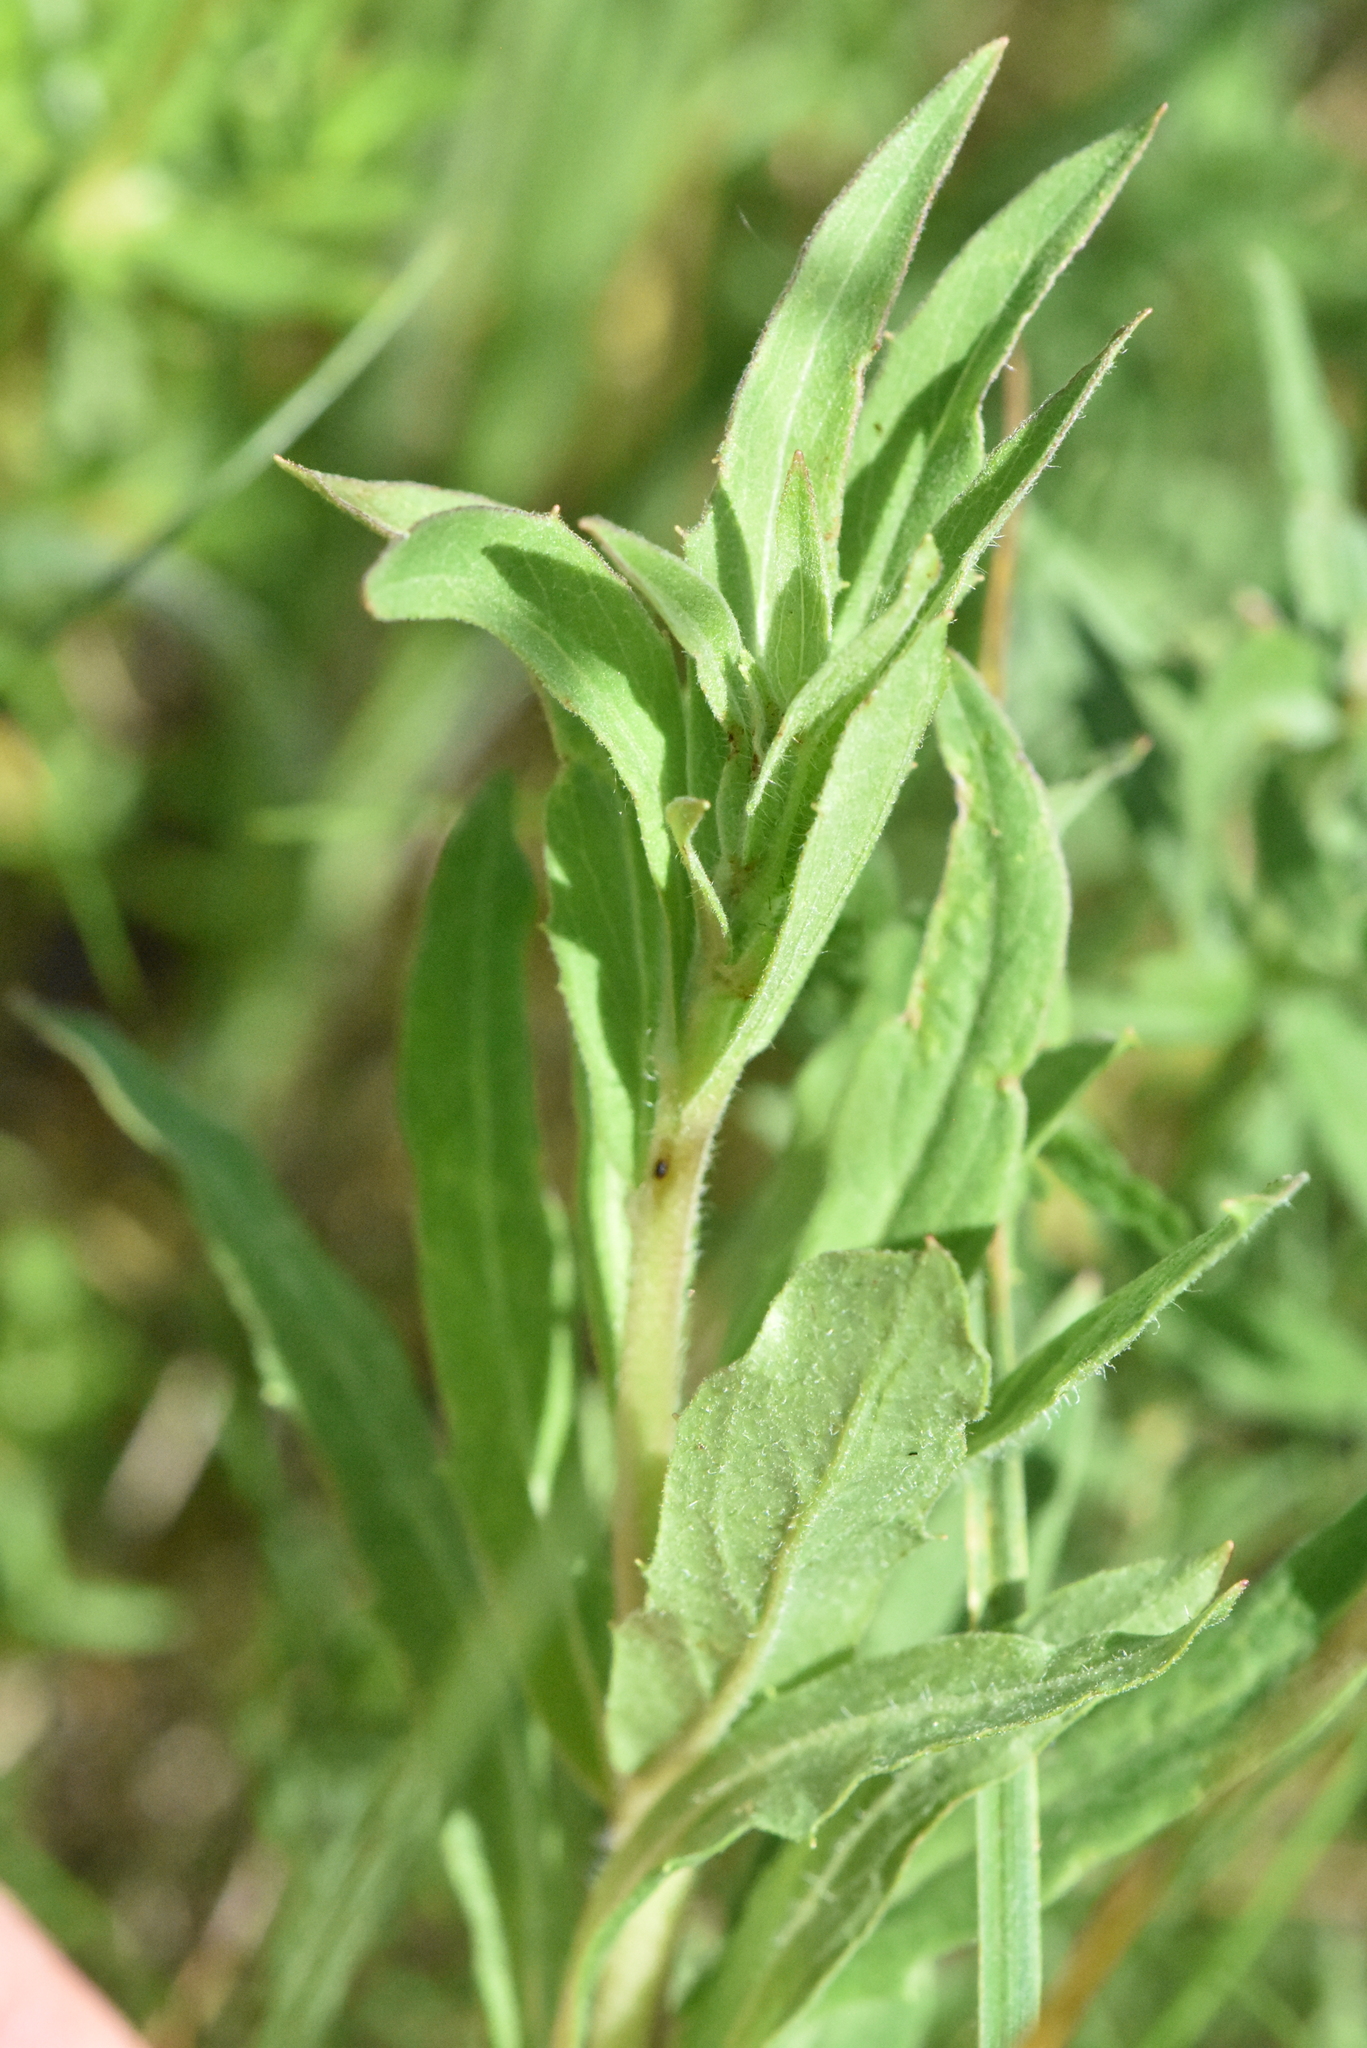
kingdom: Plantae
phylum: Tracheophyta
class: Magnoliopsida
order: Asterales
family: Asteraceae
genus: Hieracium
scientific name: Hieracium umbellatum
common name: Northern hawkweed
